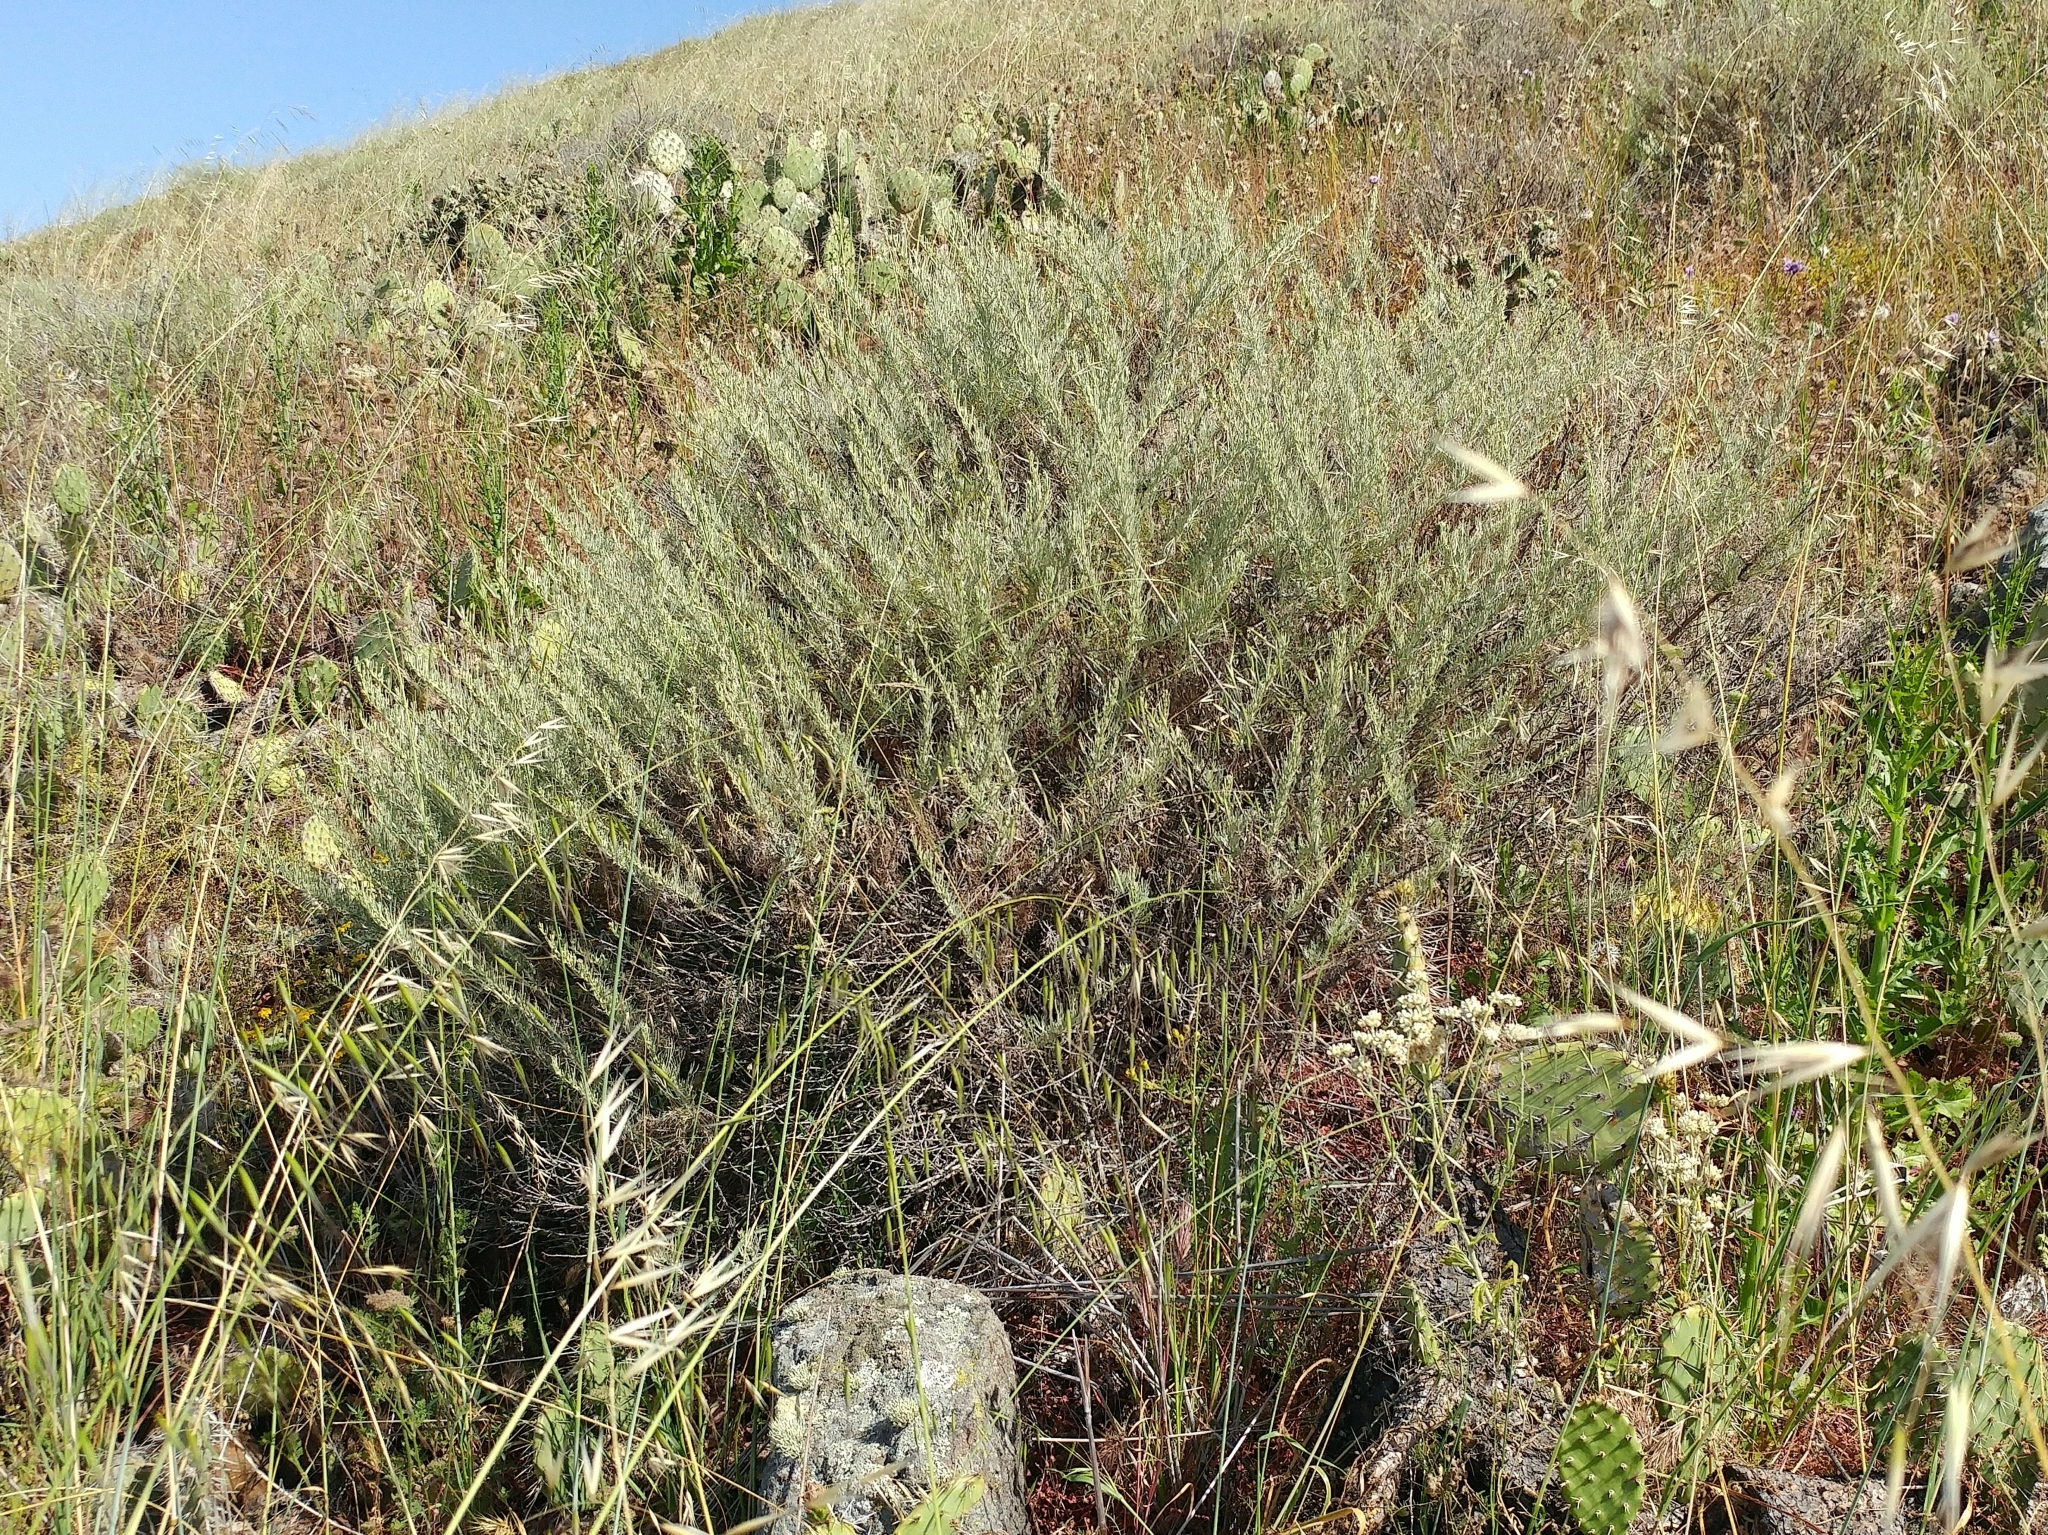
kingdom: Plantae
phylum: Tracheophyta
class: Magnoliopsida
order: Asterales
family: Asteraceae
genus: Artemisia
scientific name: Artemisia californica
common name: California sagebrush
